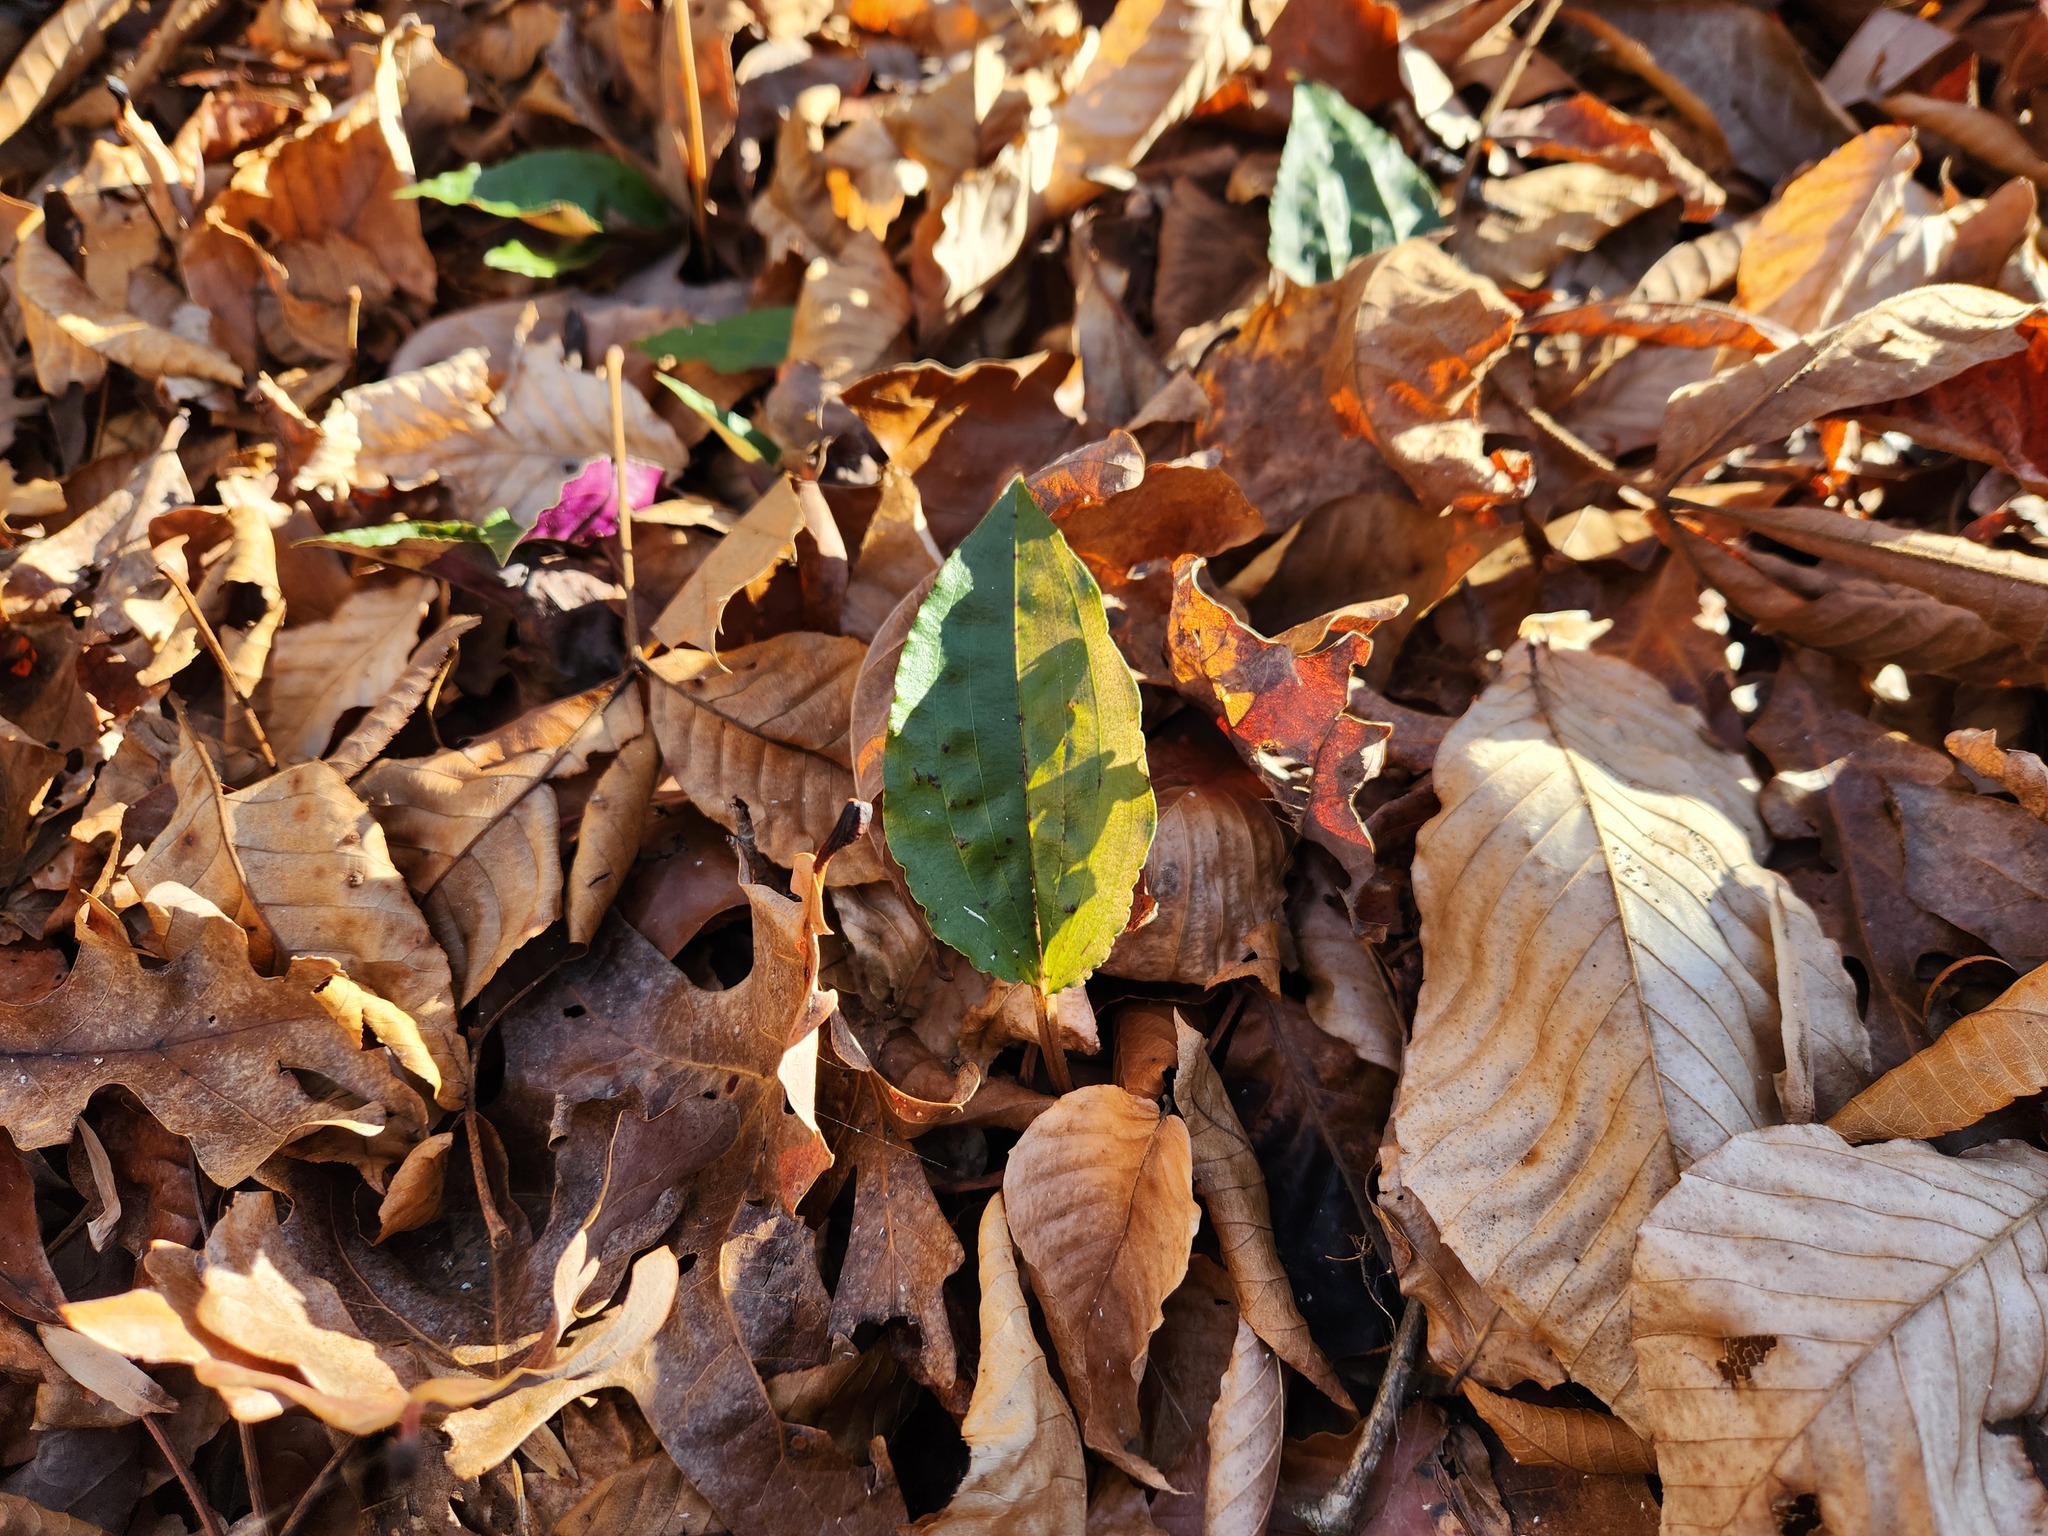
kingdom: Plantae
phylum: Tracheophyta
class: Liliopsida
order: Asparagales
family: Orchidaceae
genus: Tipularia
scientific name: Tipularia discolor
